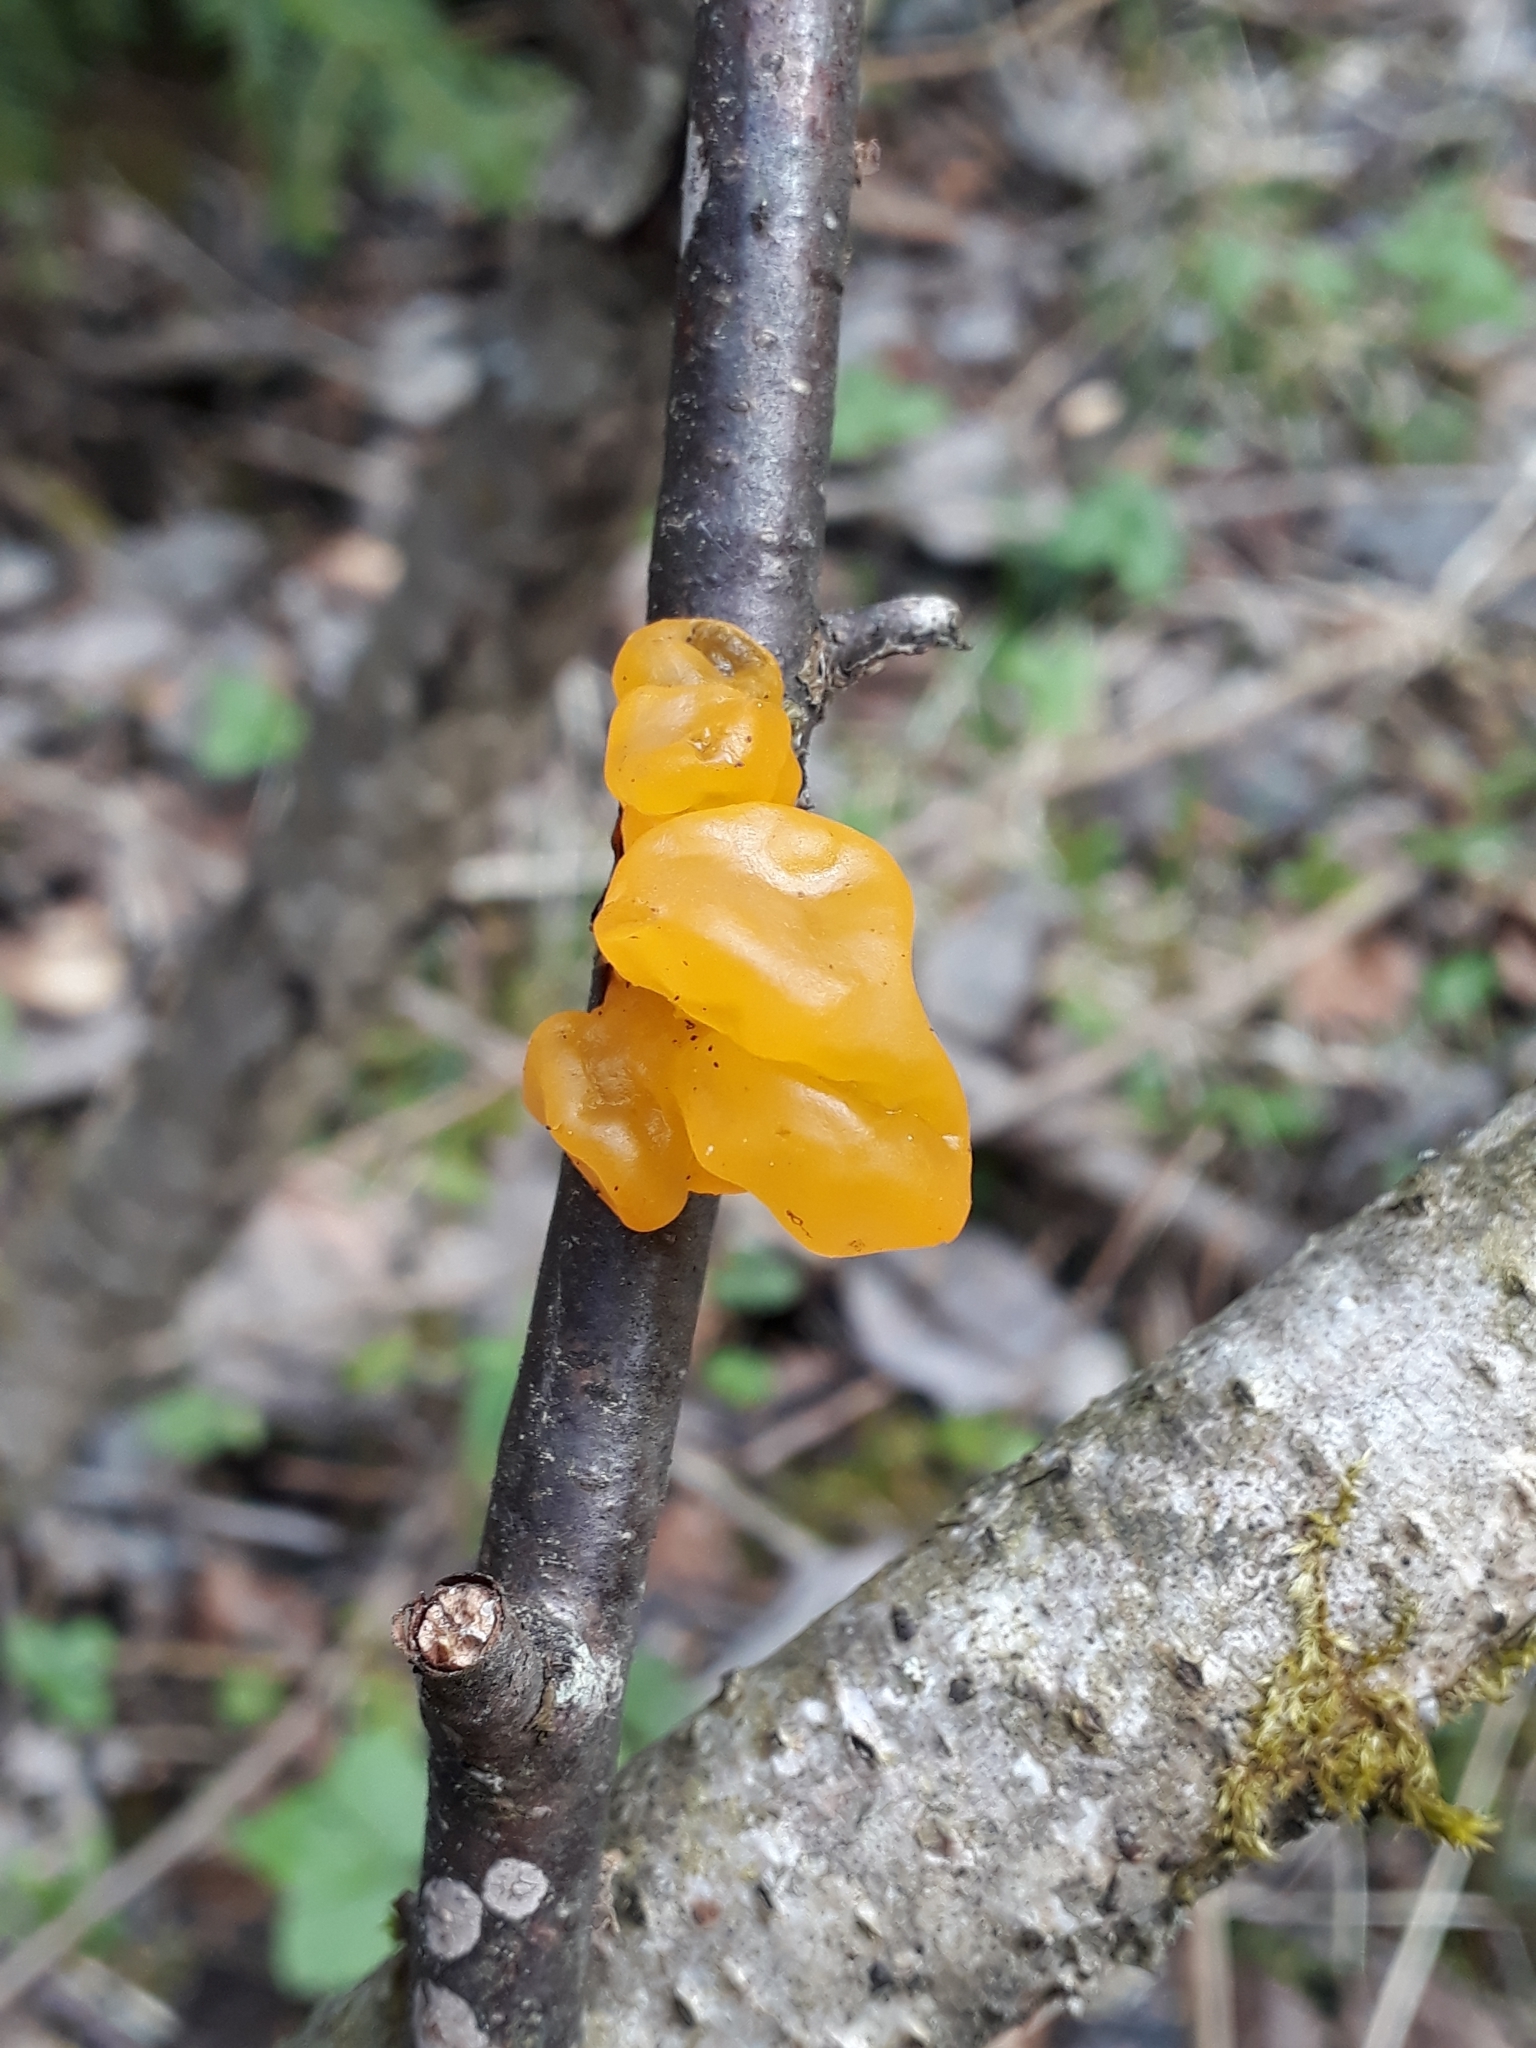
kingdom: Fungi
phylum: Basidiomycota
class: Tremellomycetes
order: Tremellales
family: Tremellaceae
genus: Tremella
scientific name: Tremella mesenterica
